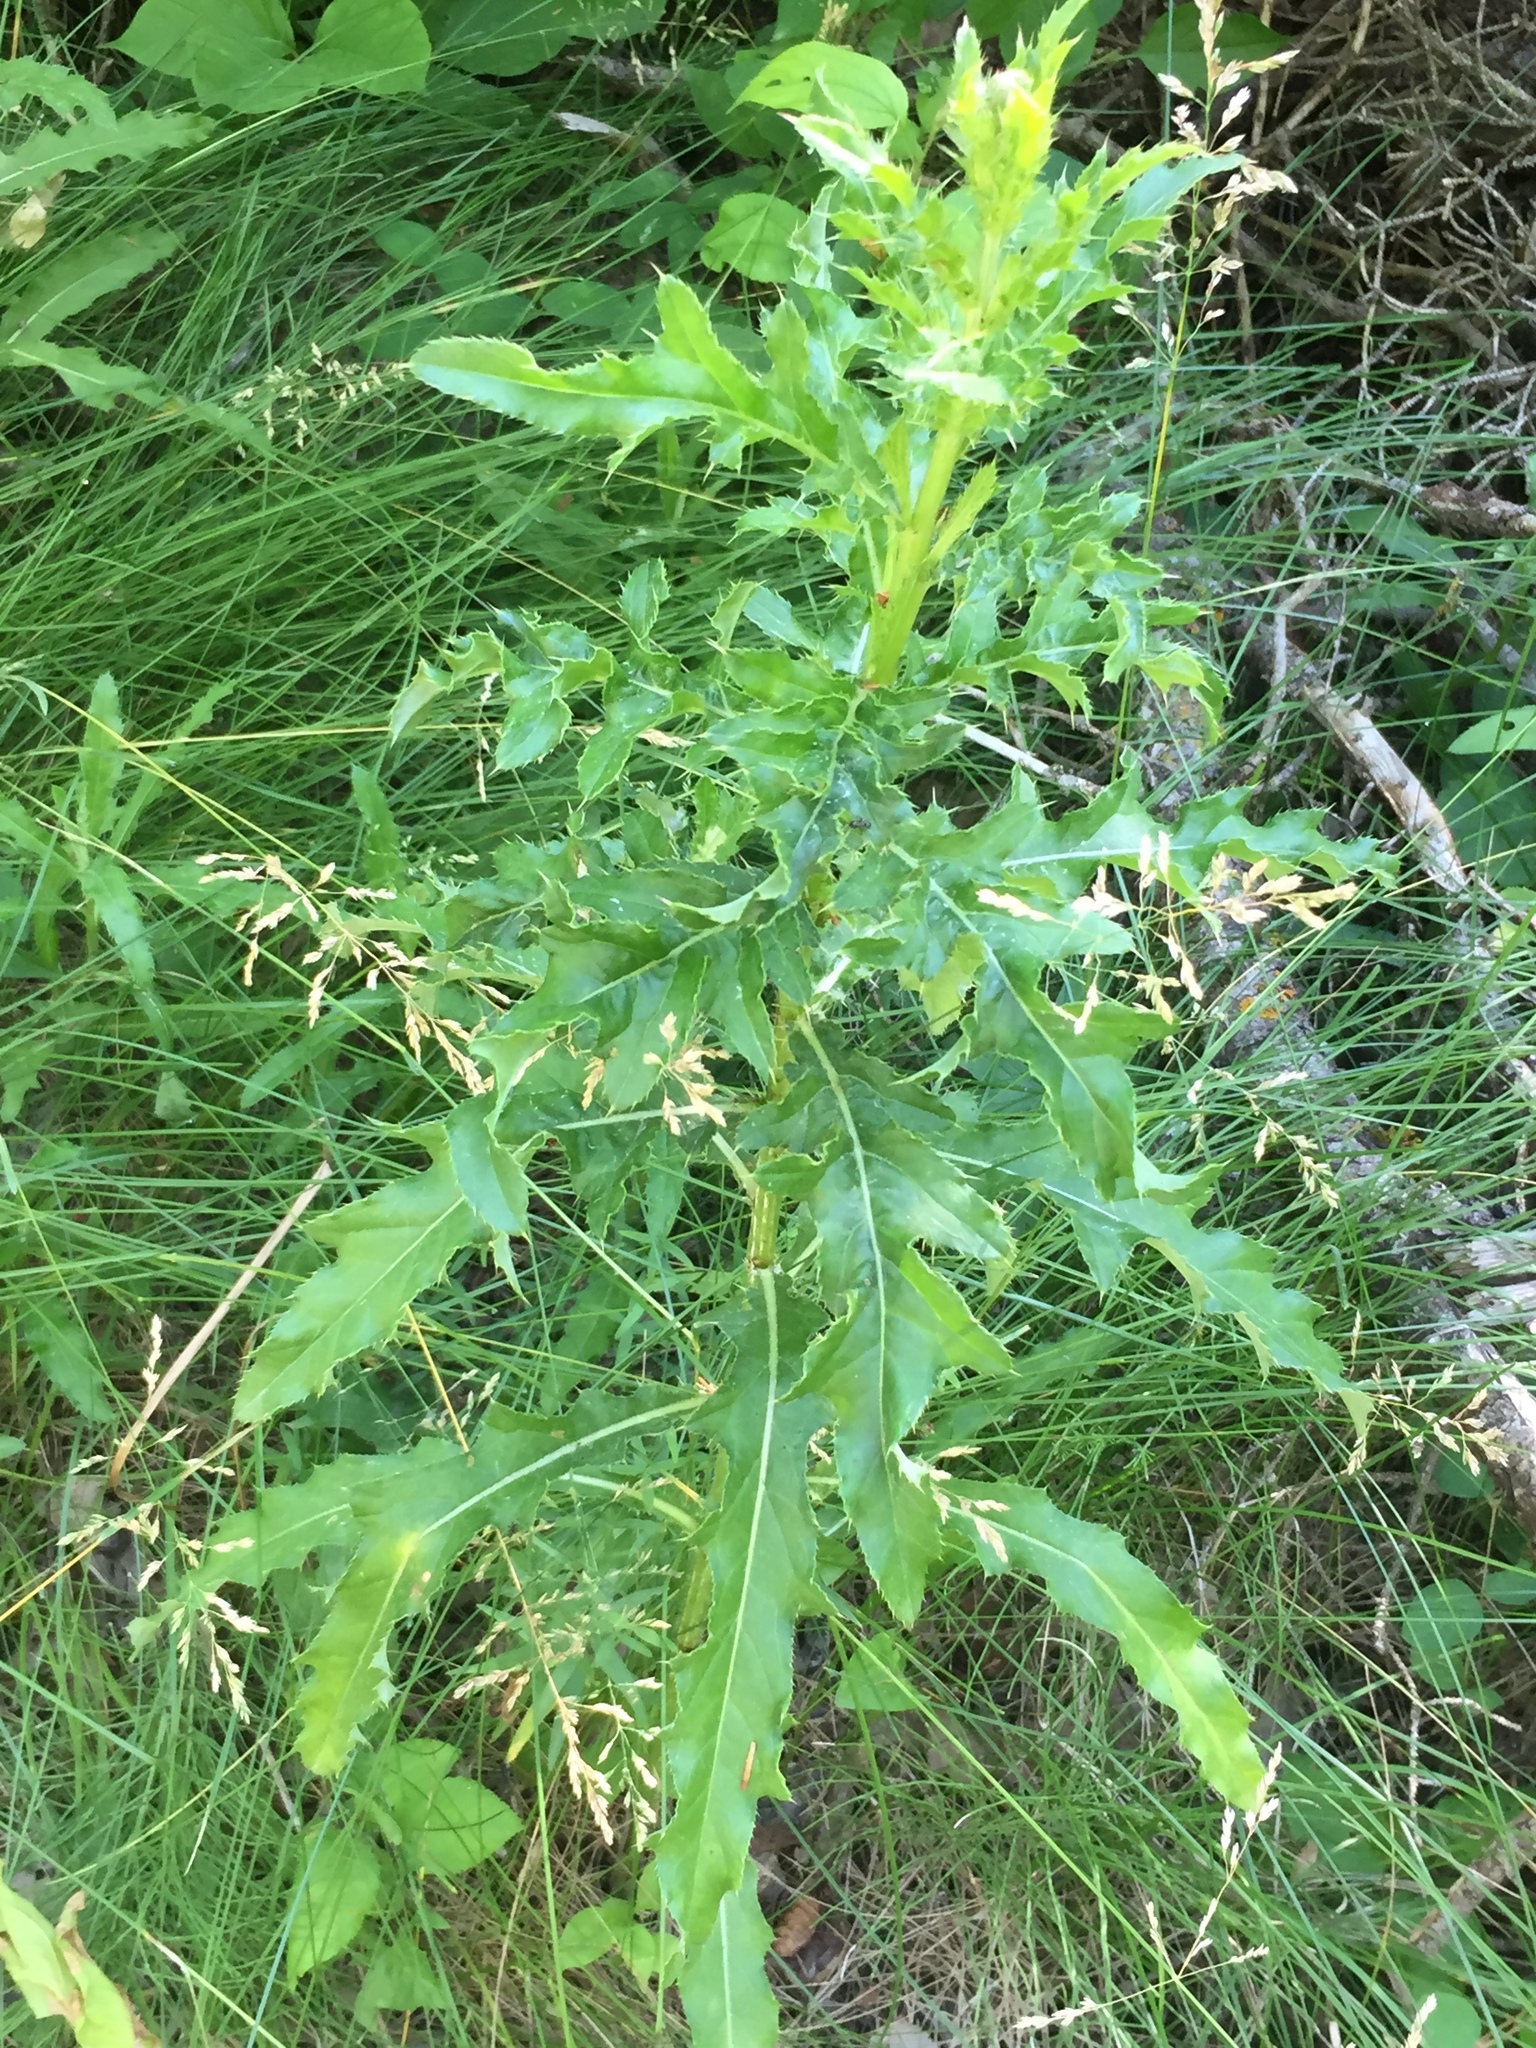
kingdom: Plantae
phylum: Tracheophyta
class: Magnoliopsida
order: Asterales
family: Asteraceae
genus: Cirsium
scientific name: Cirsium arvense
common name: Creeping thistle
